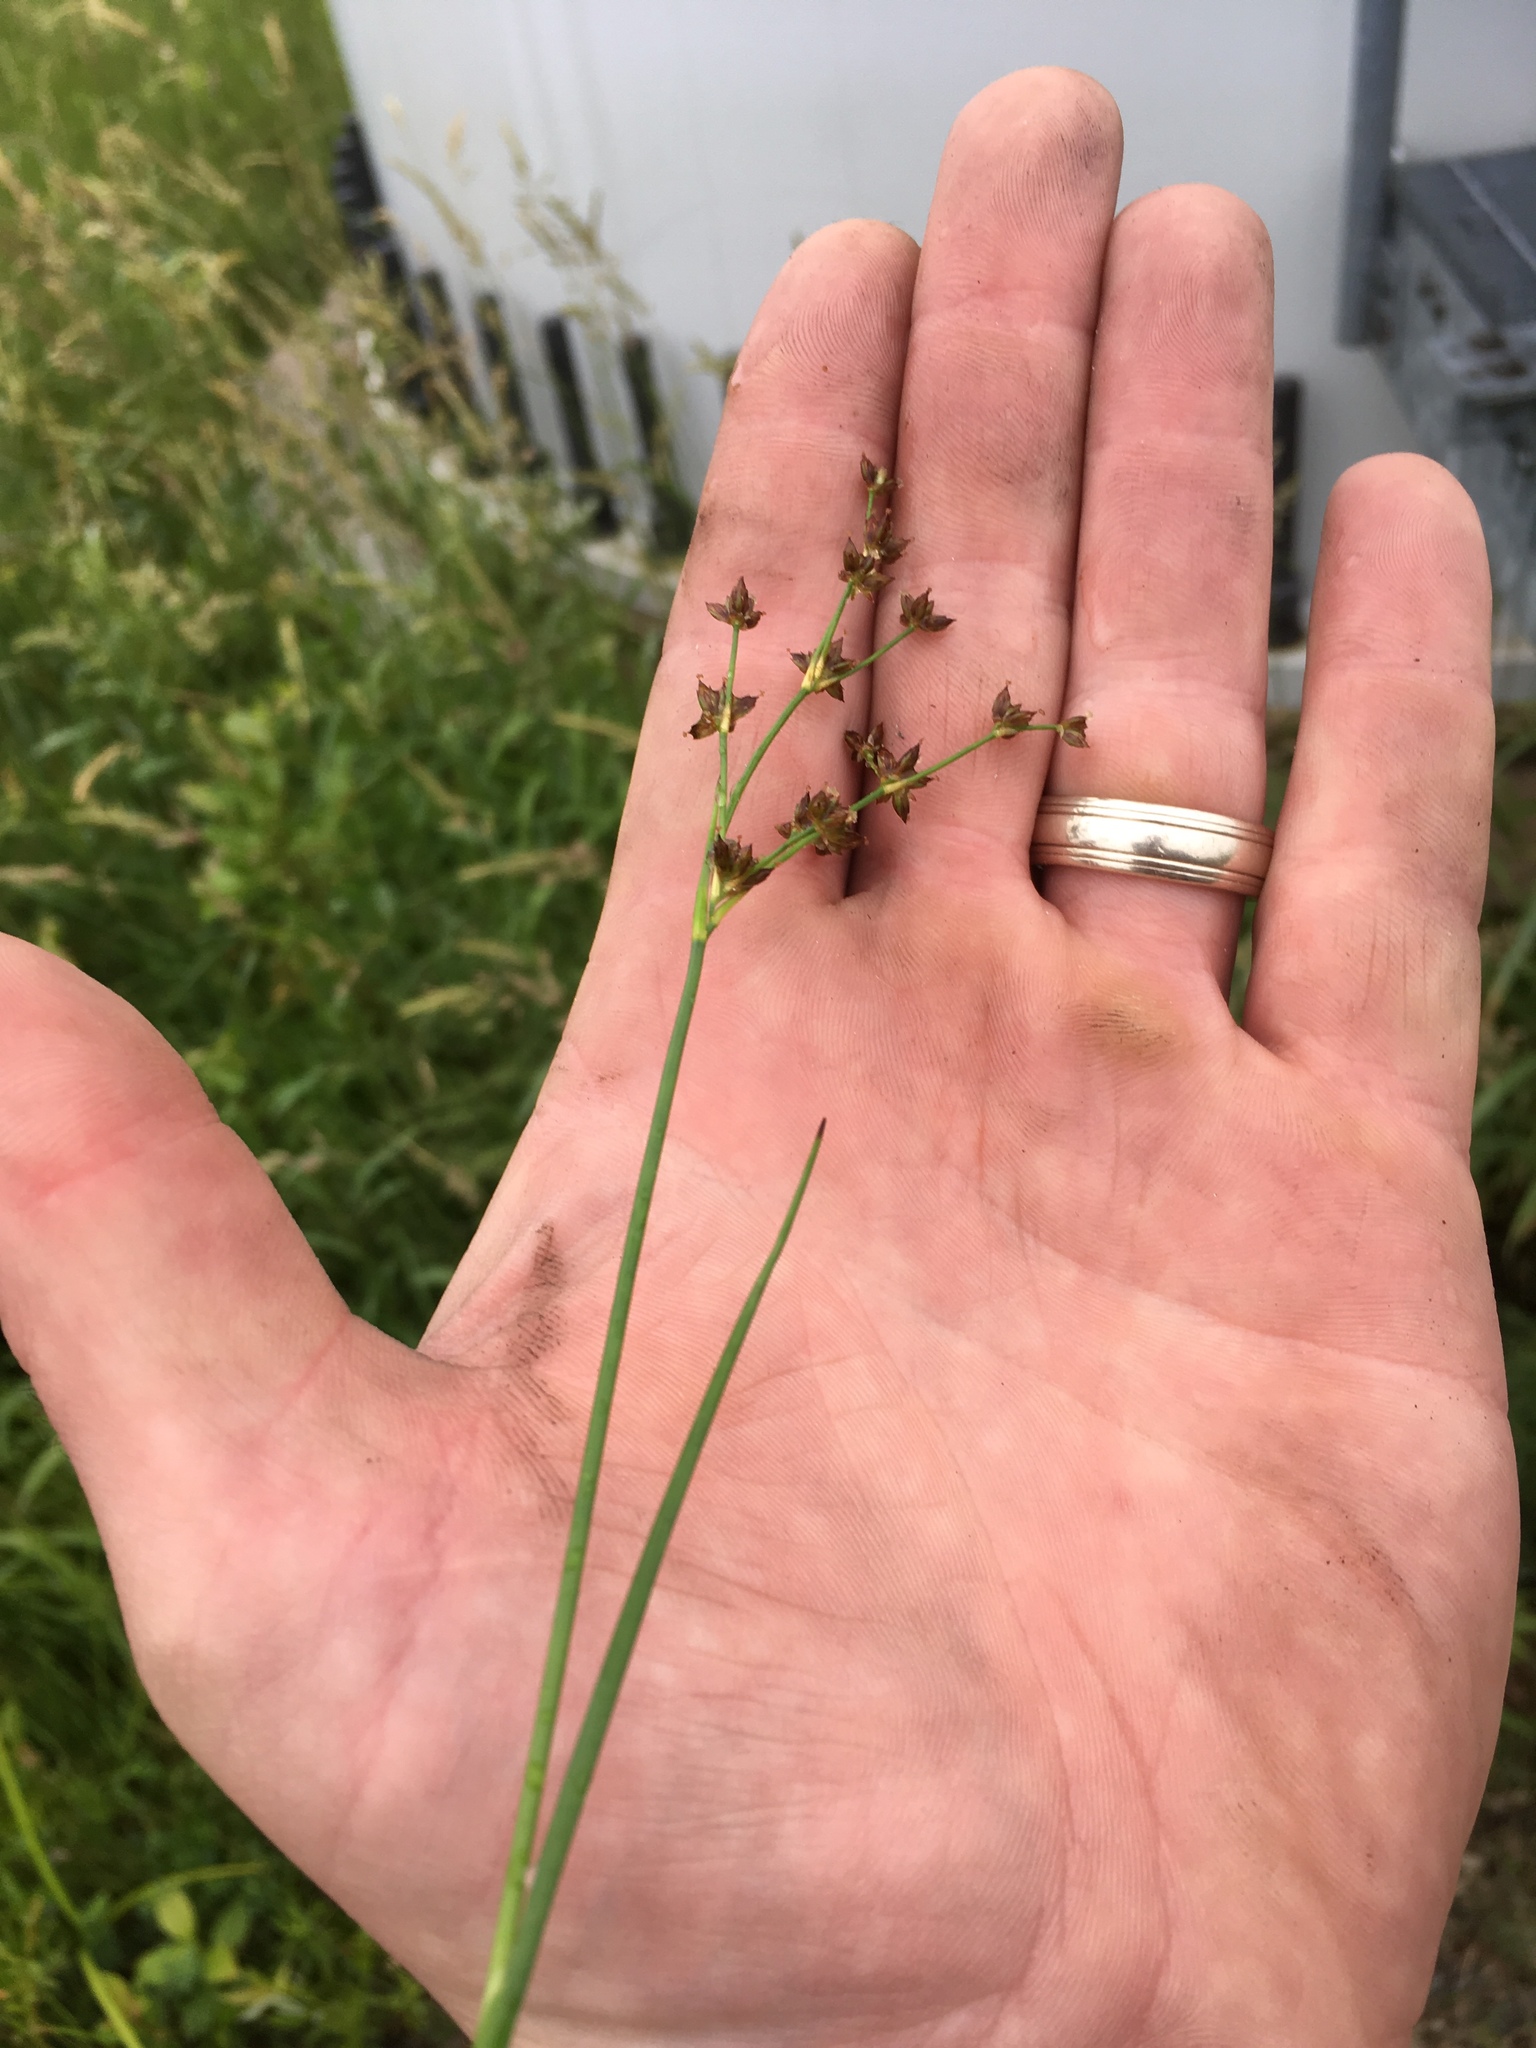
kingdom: Plantae
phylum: Tracheophyta
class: Liliopsida
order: Poales
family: Juncaceae
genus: Juncus
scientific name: Juncus articulatus
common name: Jointed rush
